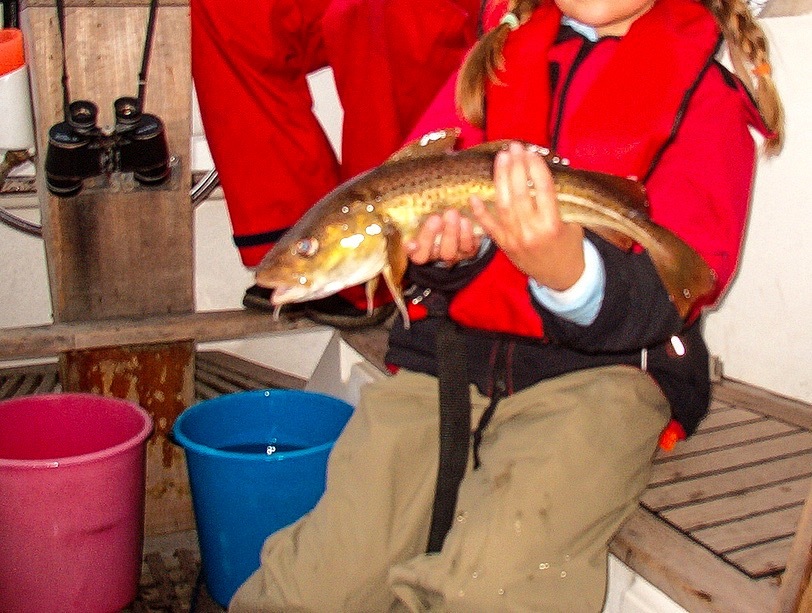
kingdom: Animalia
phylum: Chordata
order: Gadiformes
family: Gadidae
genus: Gadus
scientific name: Gadus morhua
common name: Atlantic cod
